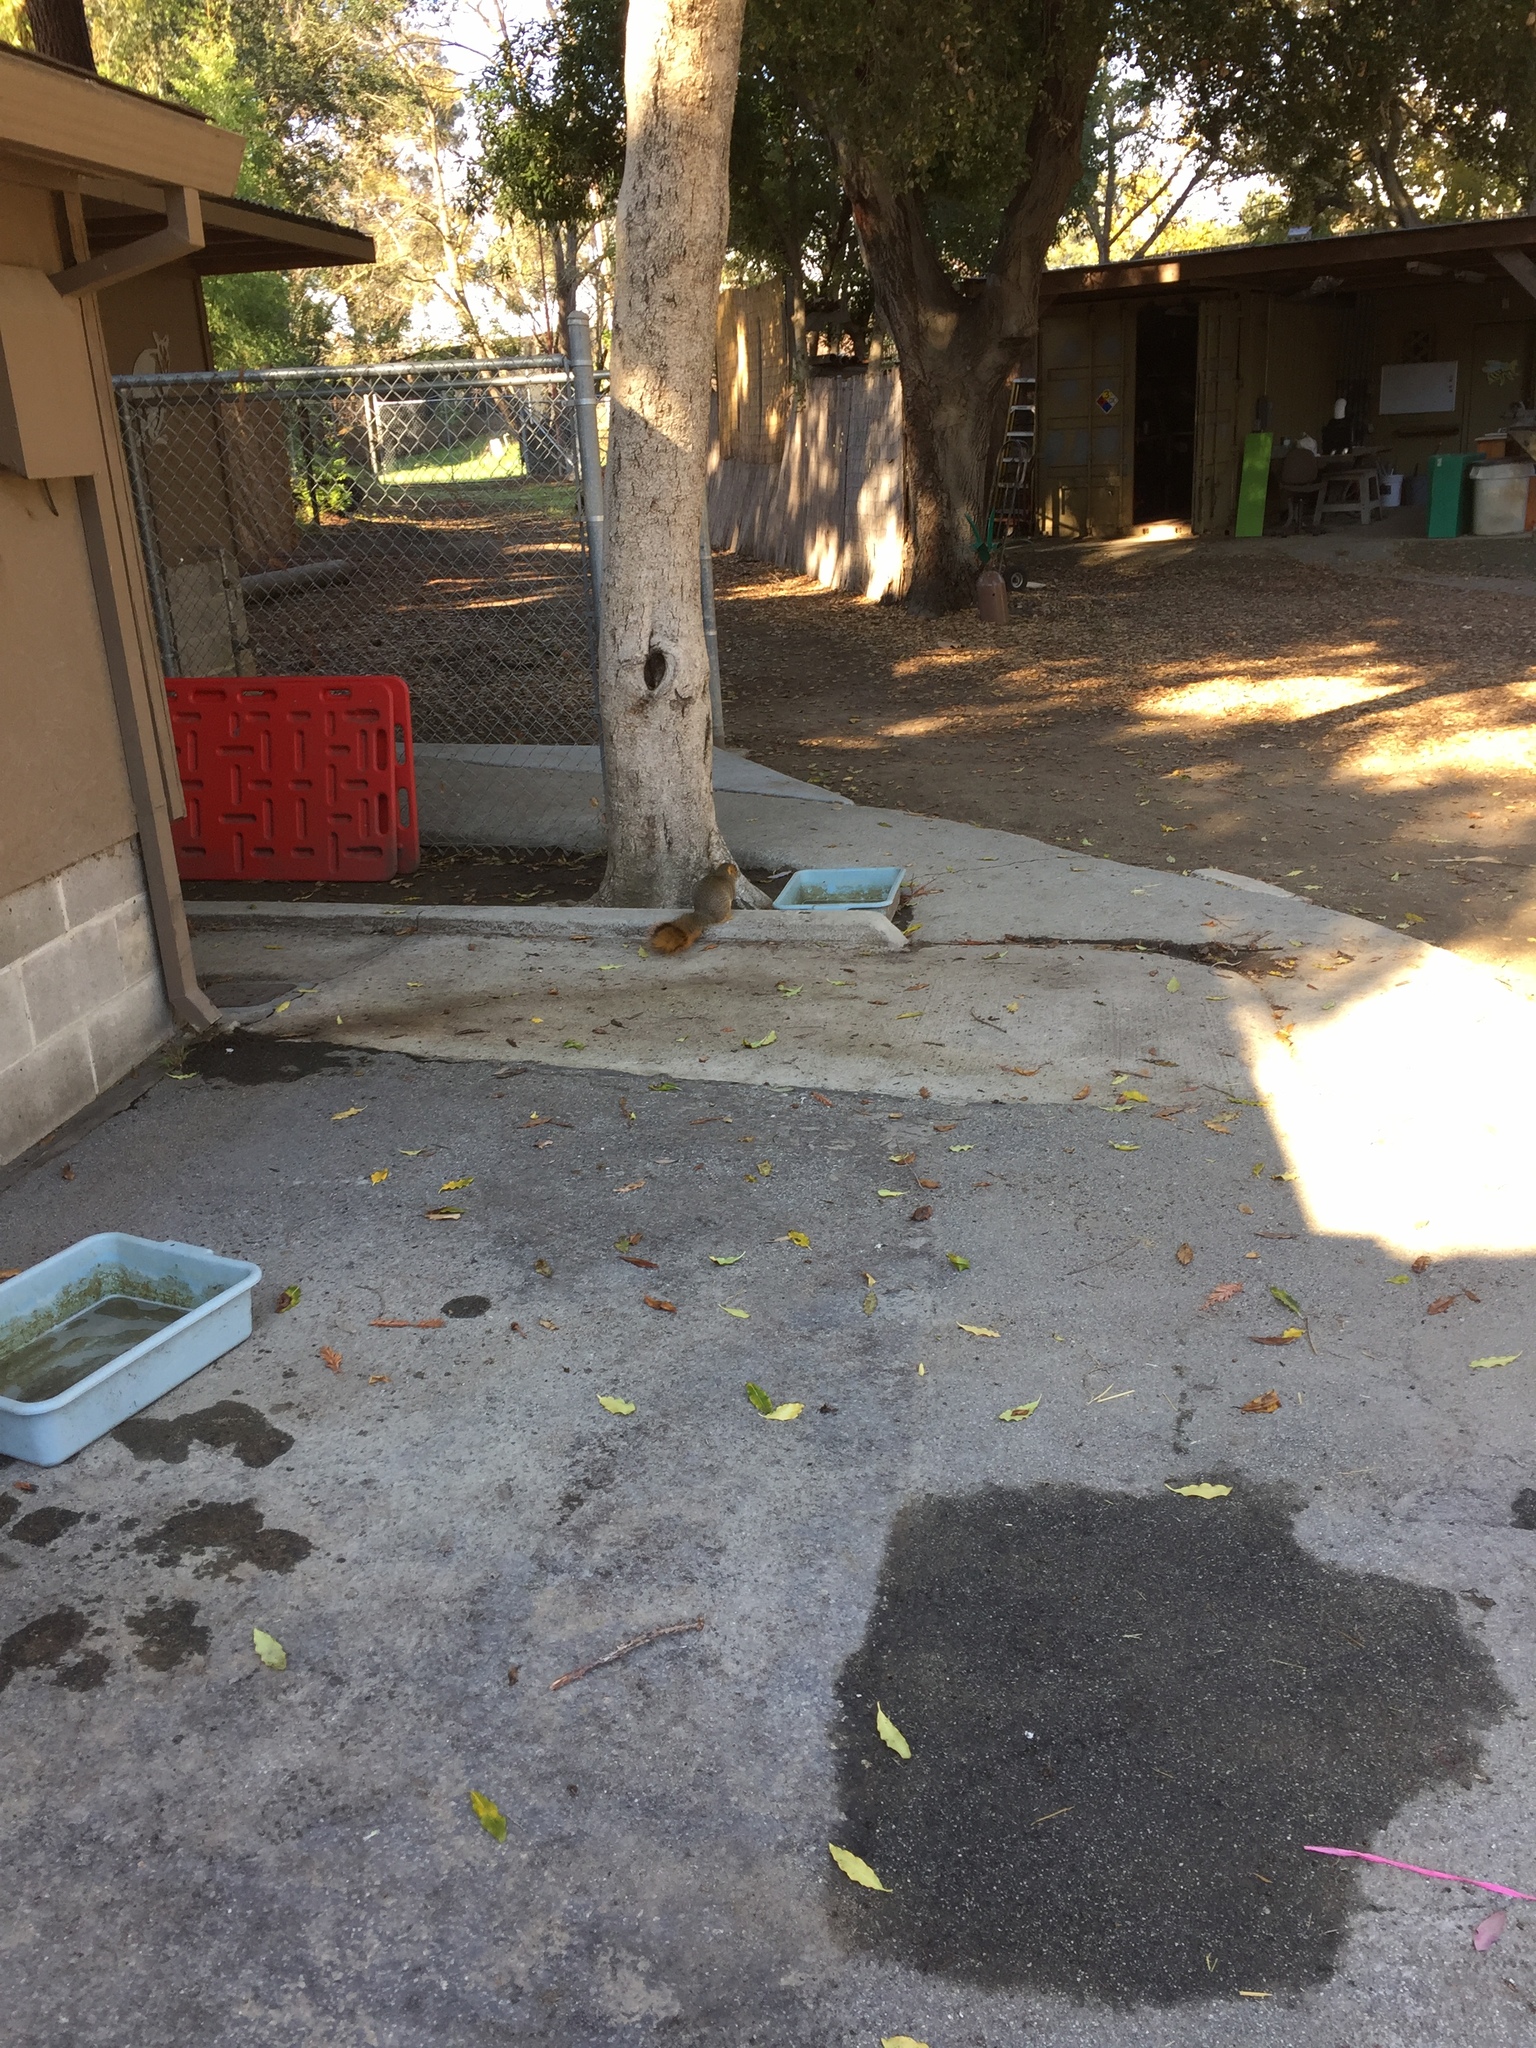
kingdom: Animalia
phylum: Chordata
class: Mammalia
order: Rodentia
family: Sciuridae
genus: Sciurus
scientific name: Sciurus niger
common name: Fox squirrel
